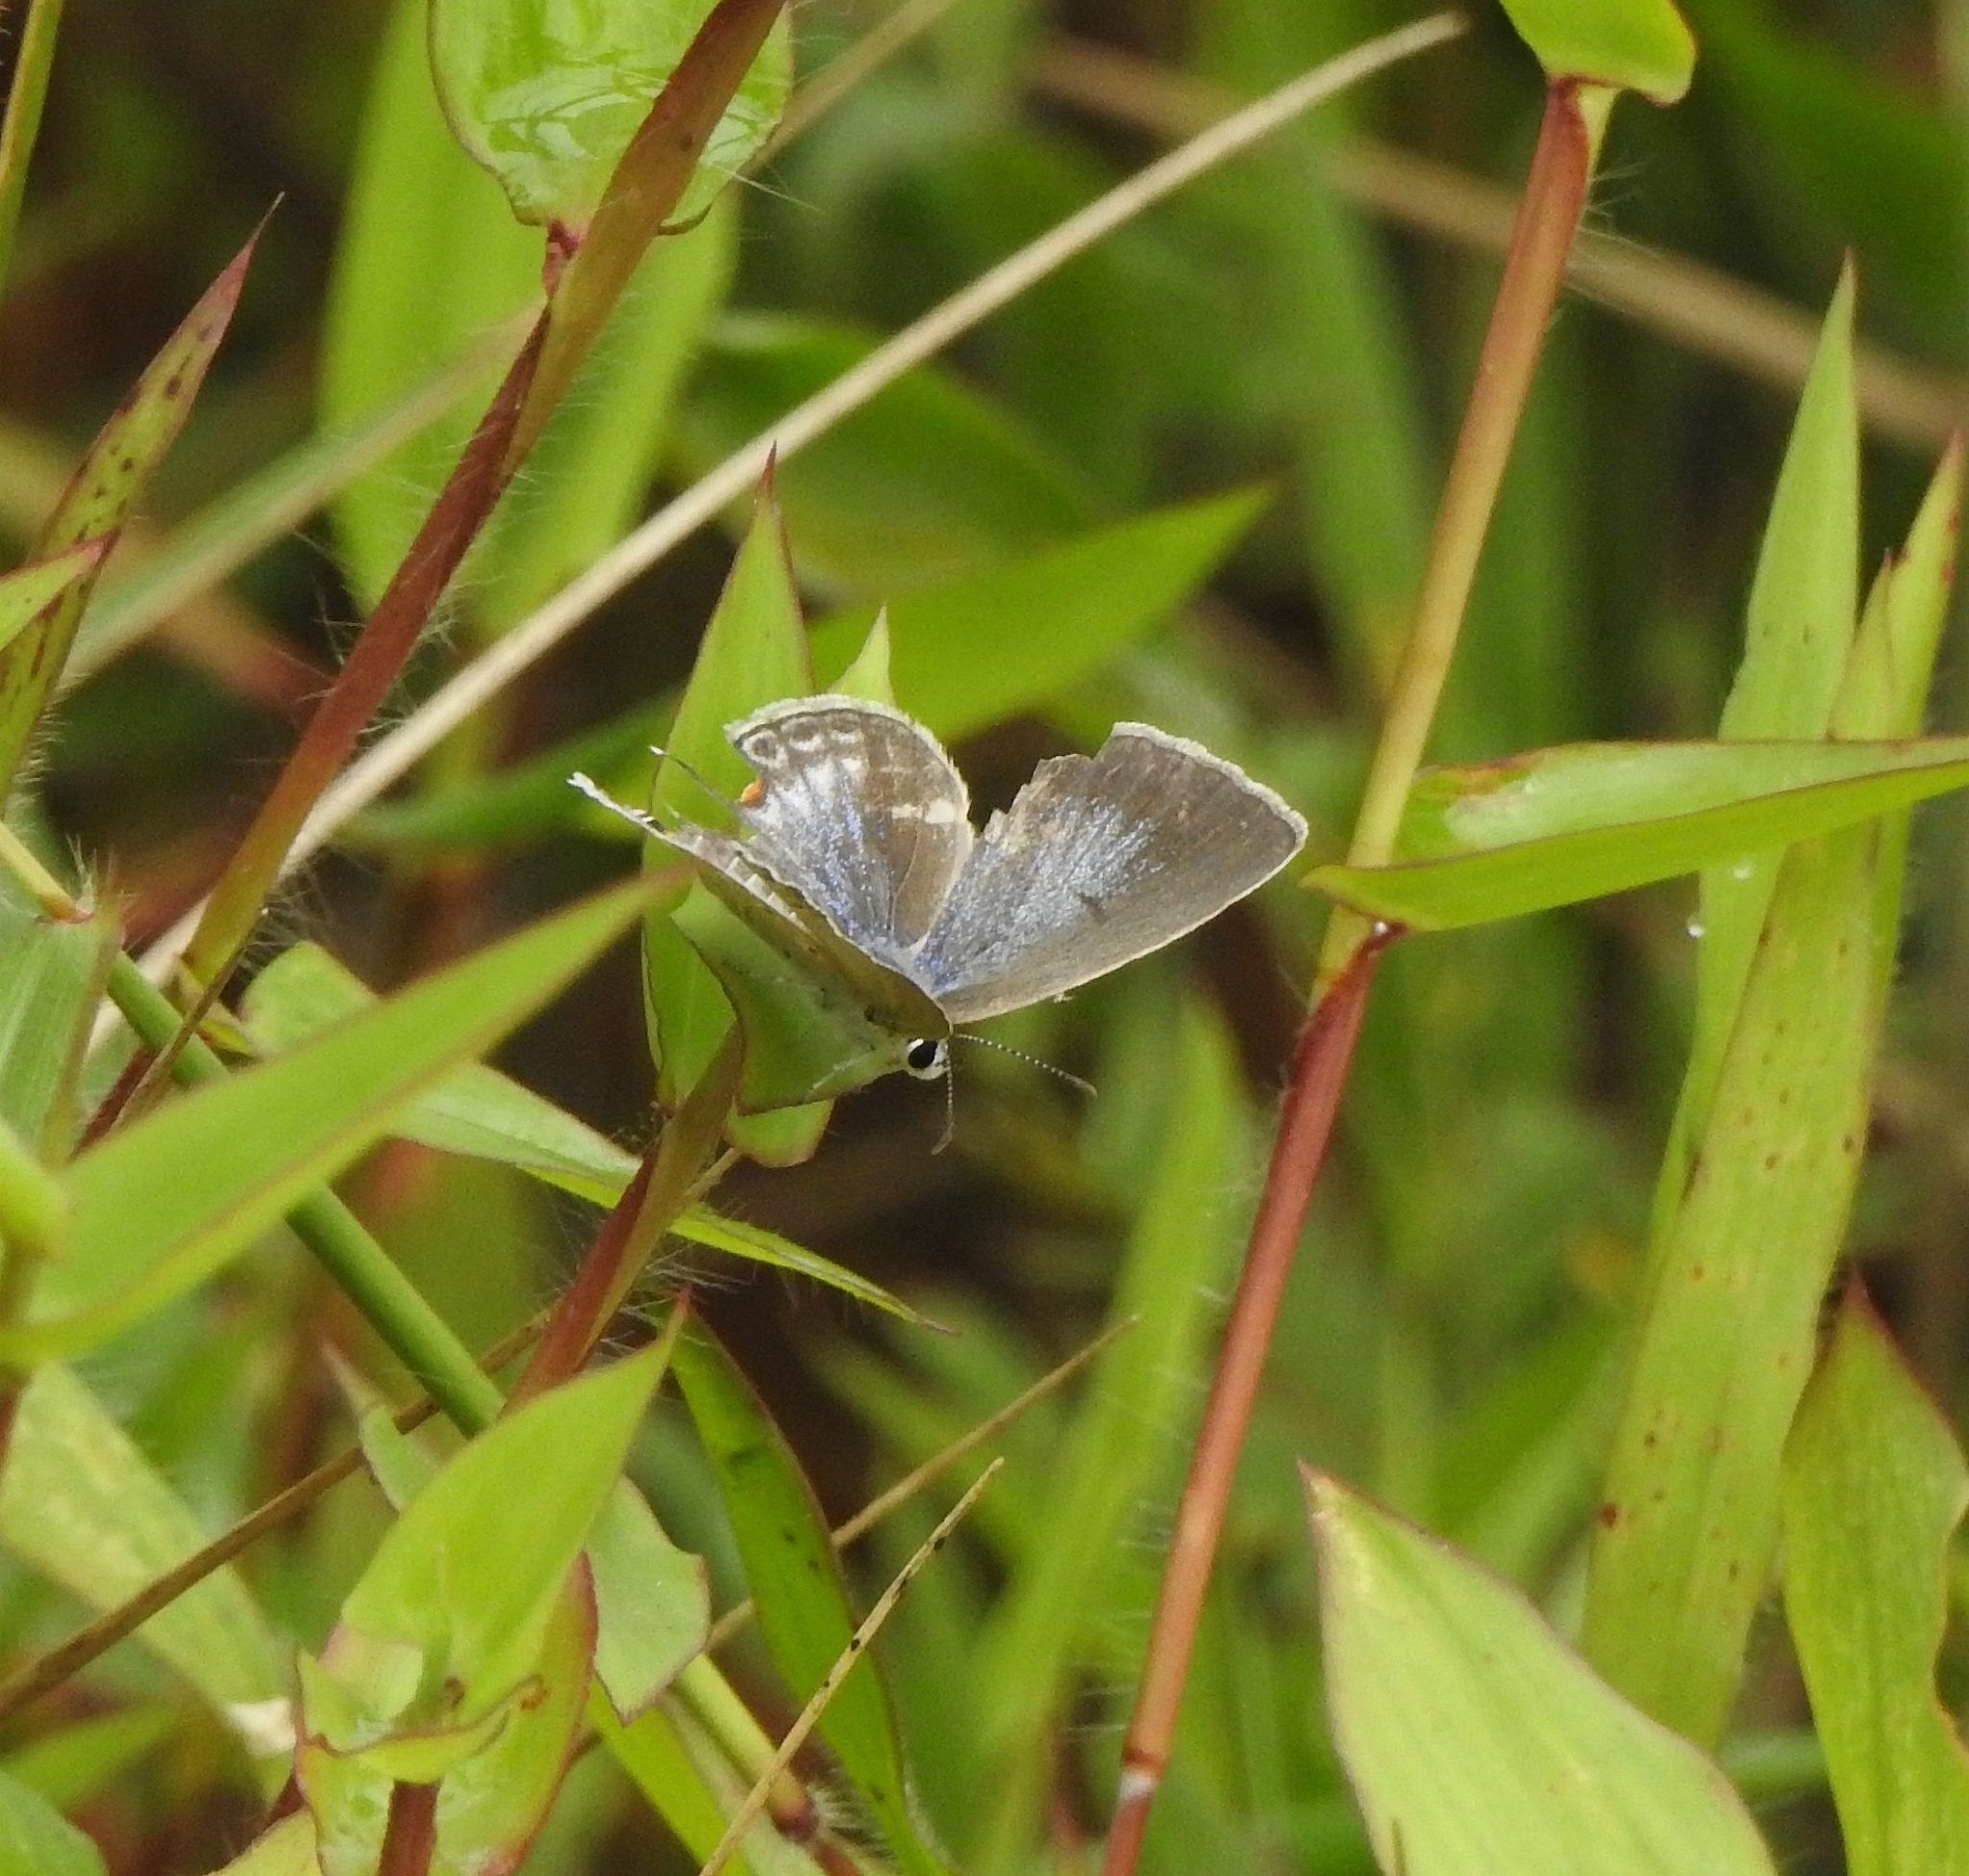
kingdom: Animalia
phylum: Arthropoda
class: Insecta
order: Lepidoptera
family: Lycaenidae
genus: Euchrysops
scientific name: Euchrysops cnejus
